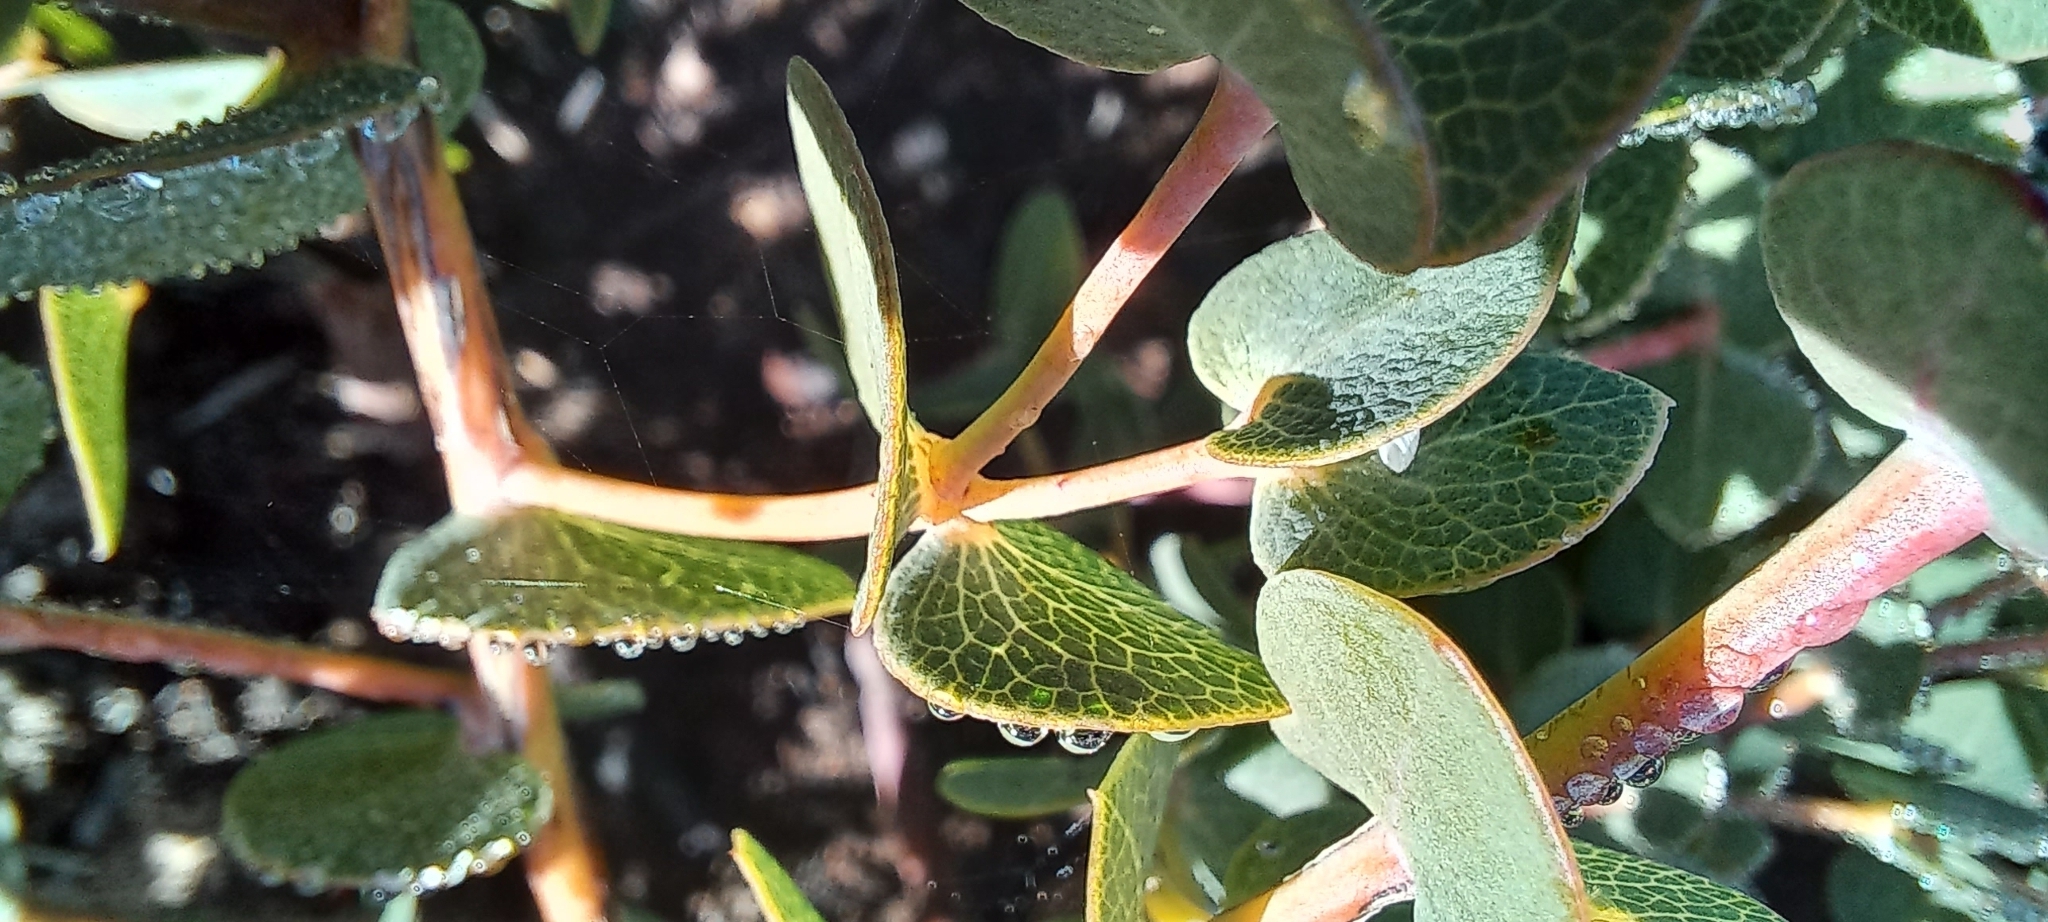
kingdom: Plantae
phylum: Tracheophyta
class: Magnoliopsida
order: Fabales
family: Fabaceae
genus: Rafnia
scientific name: Rafnia acuminata
